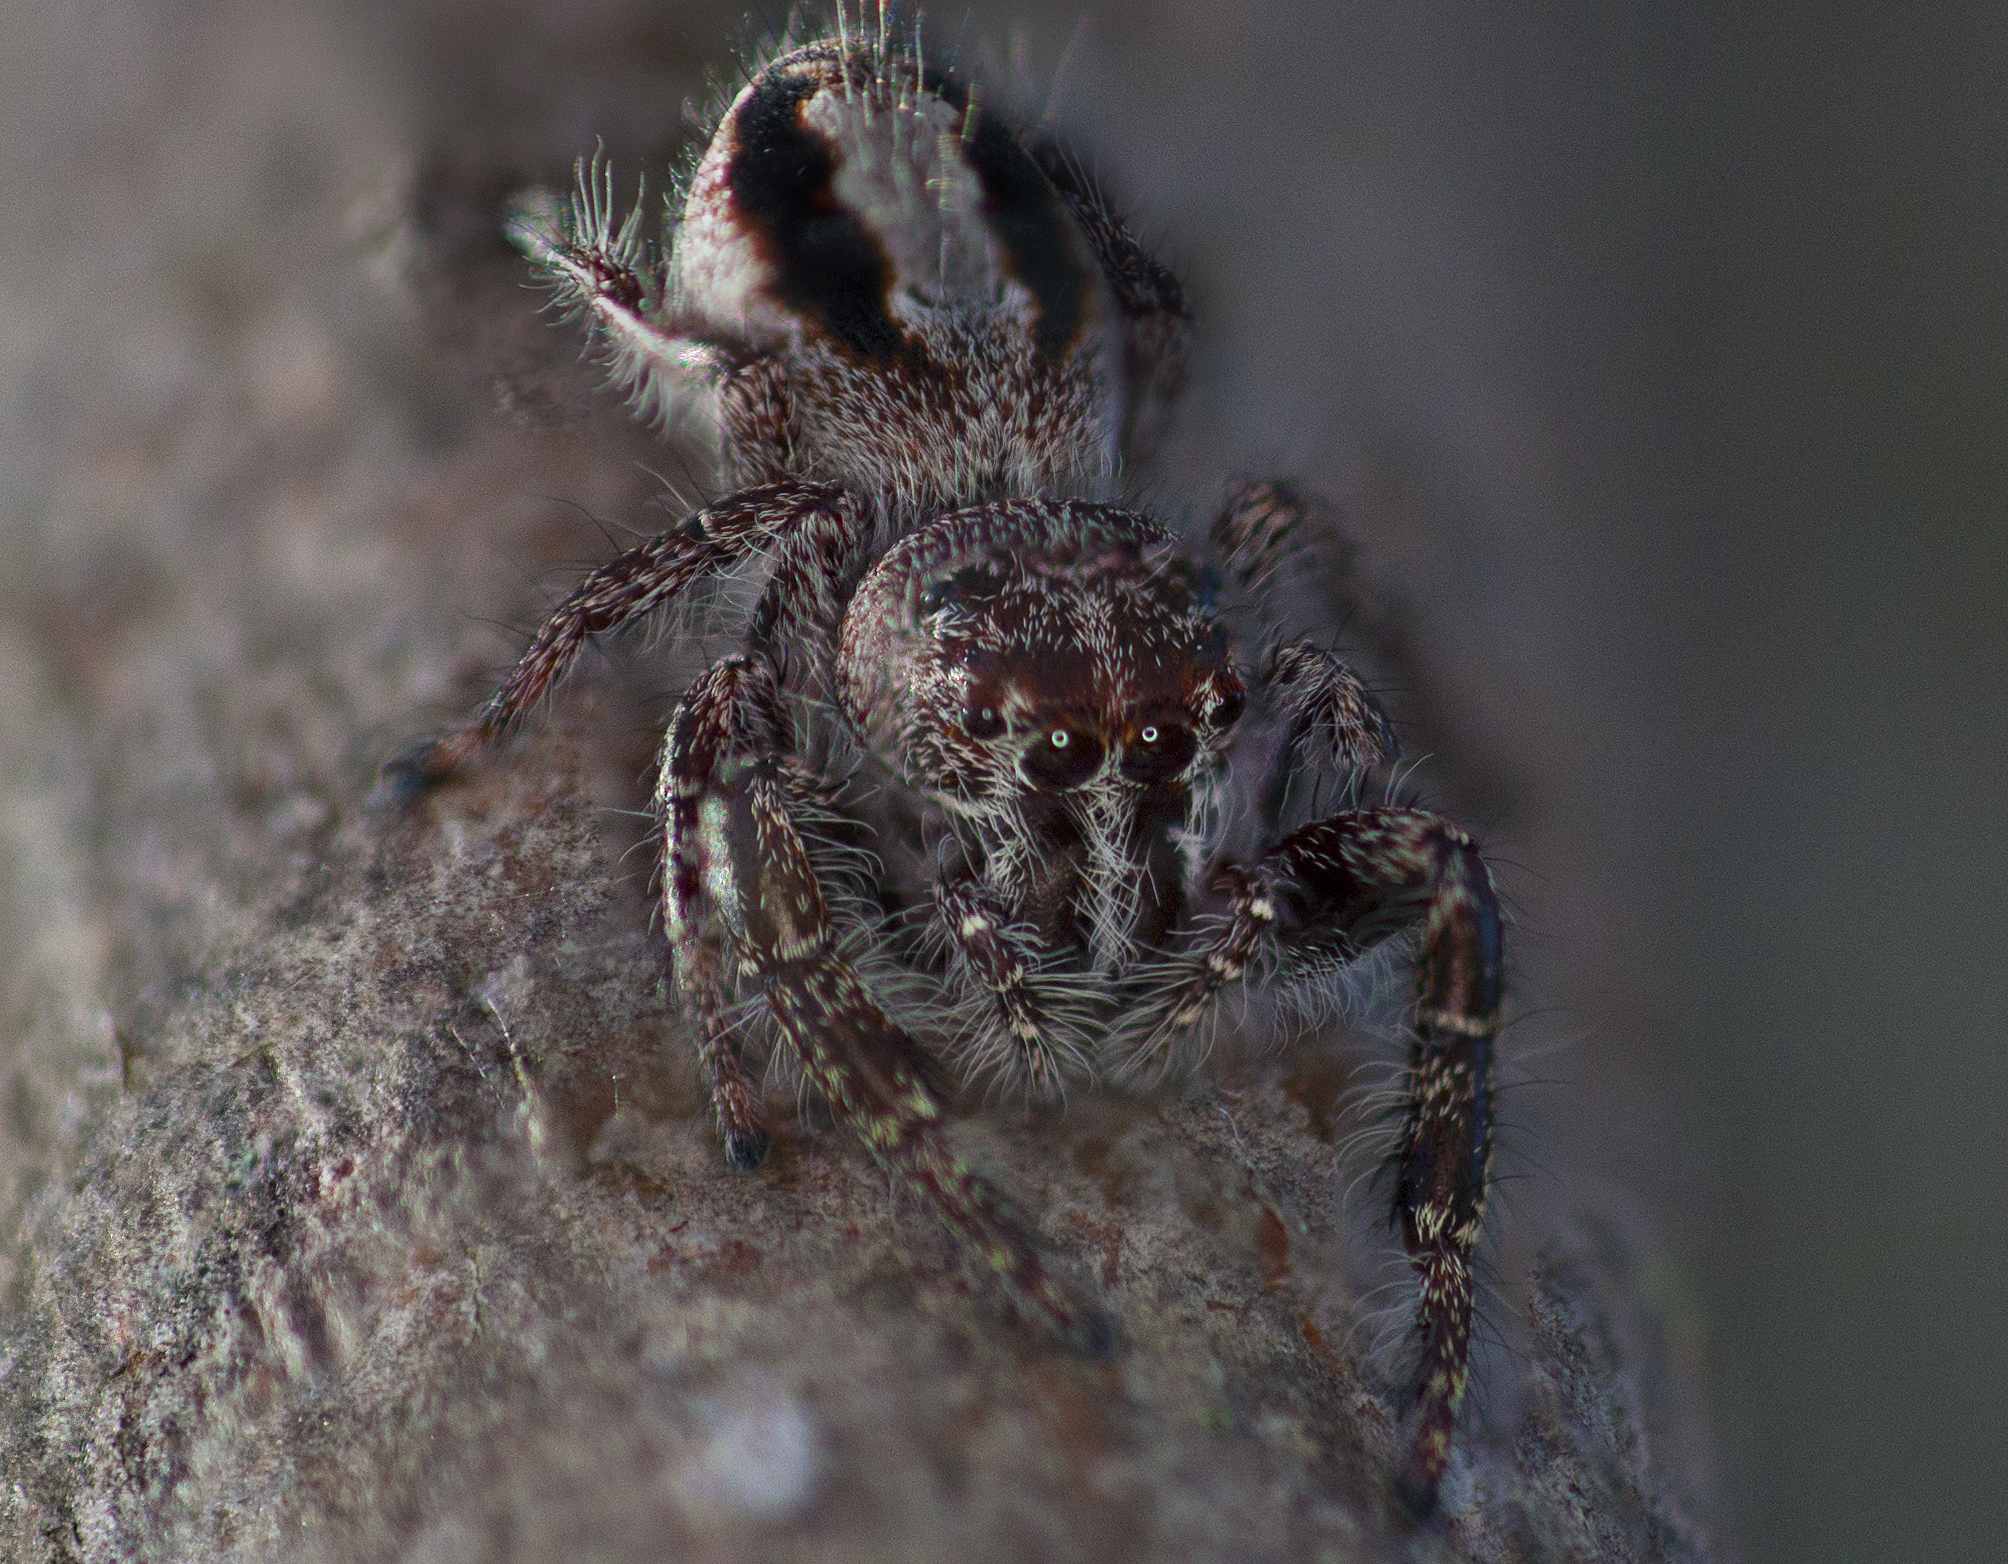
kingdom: Animalia
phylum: Arthropoda
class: Arachnida
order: Araneae
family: Salticidae
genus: Sandalodes
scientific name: Sandalodes superbus
